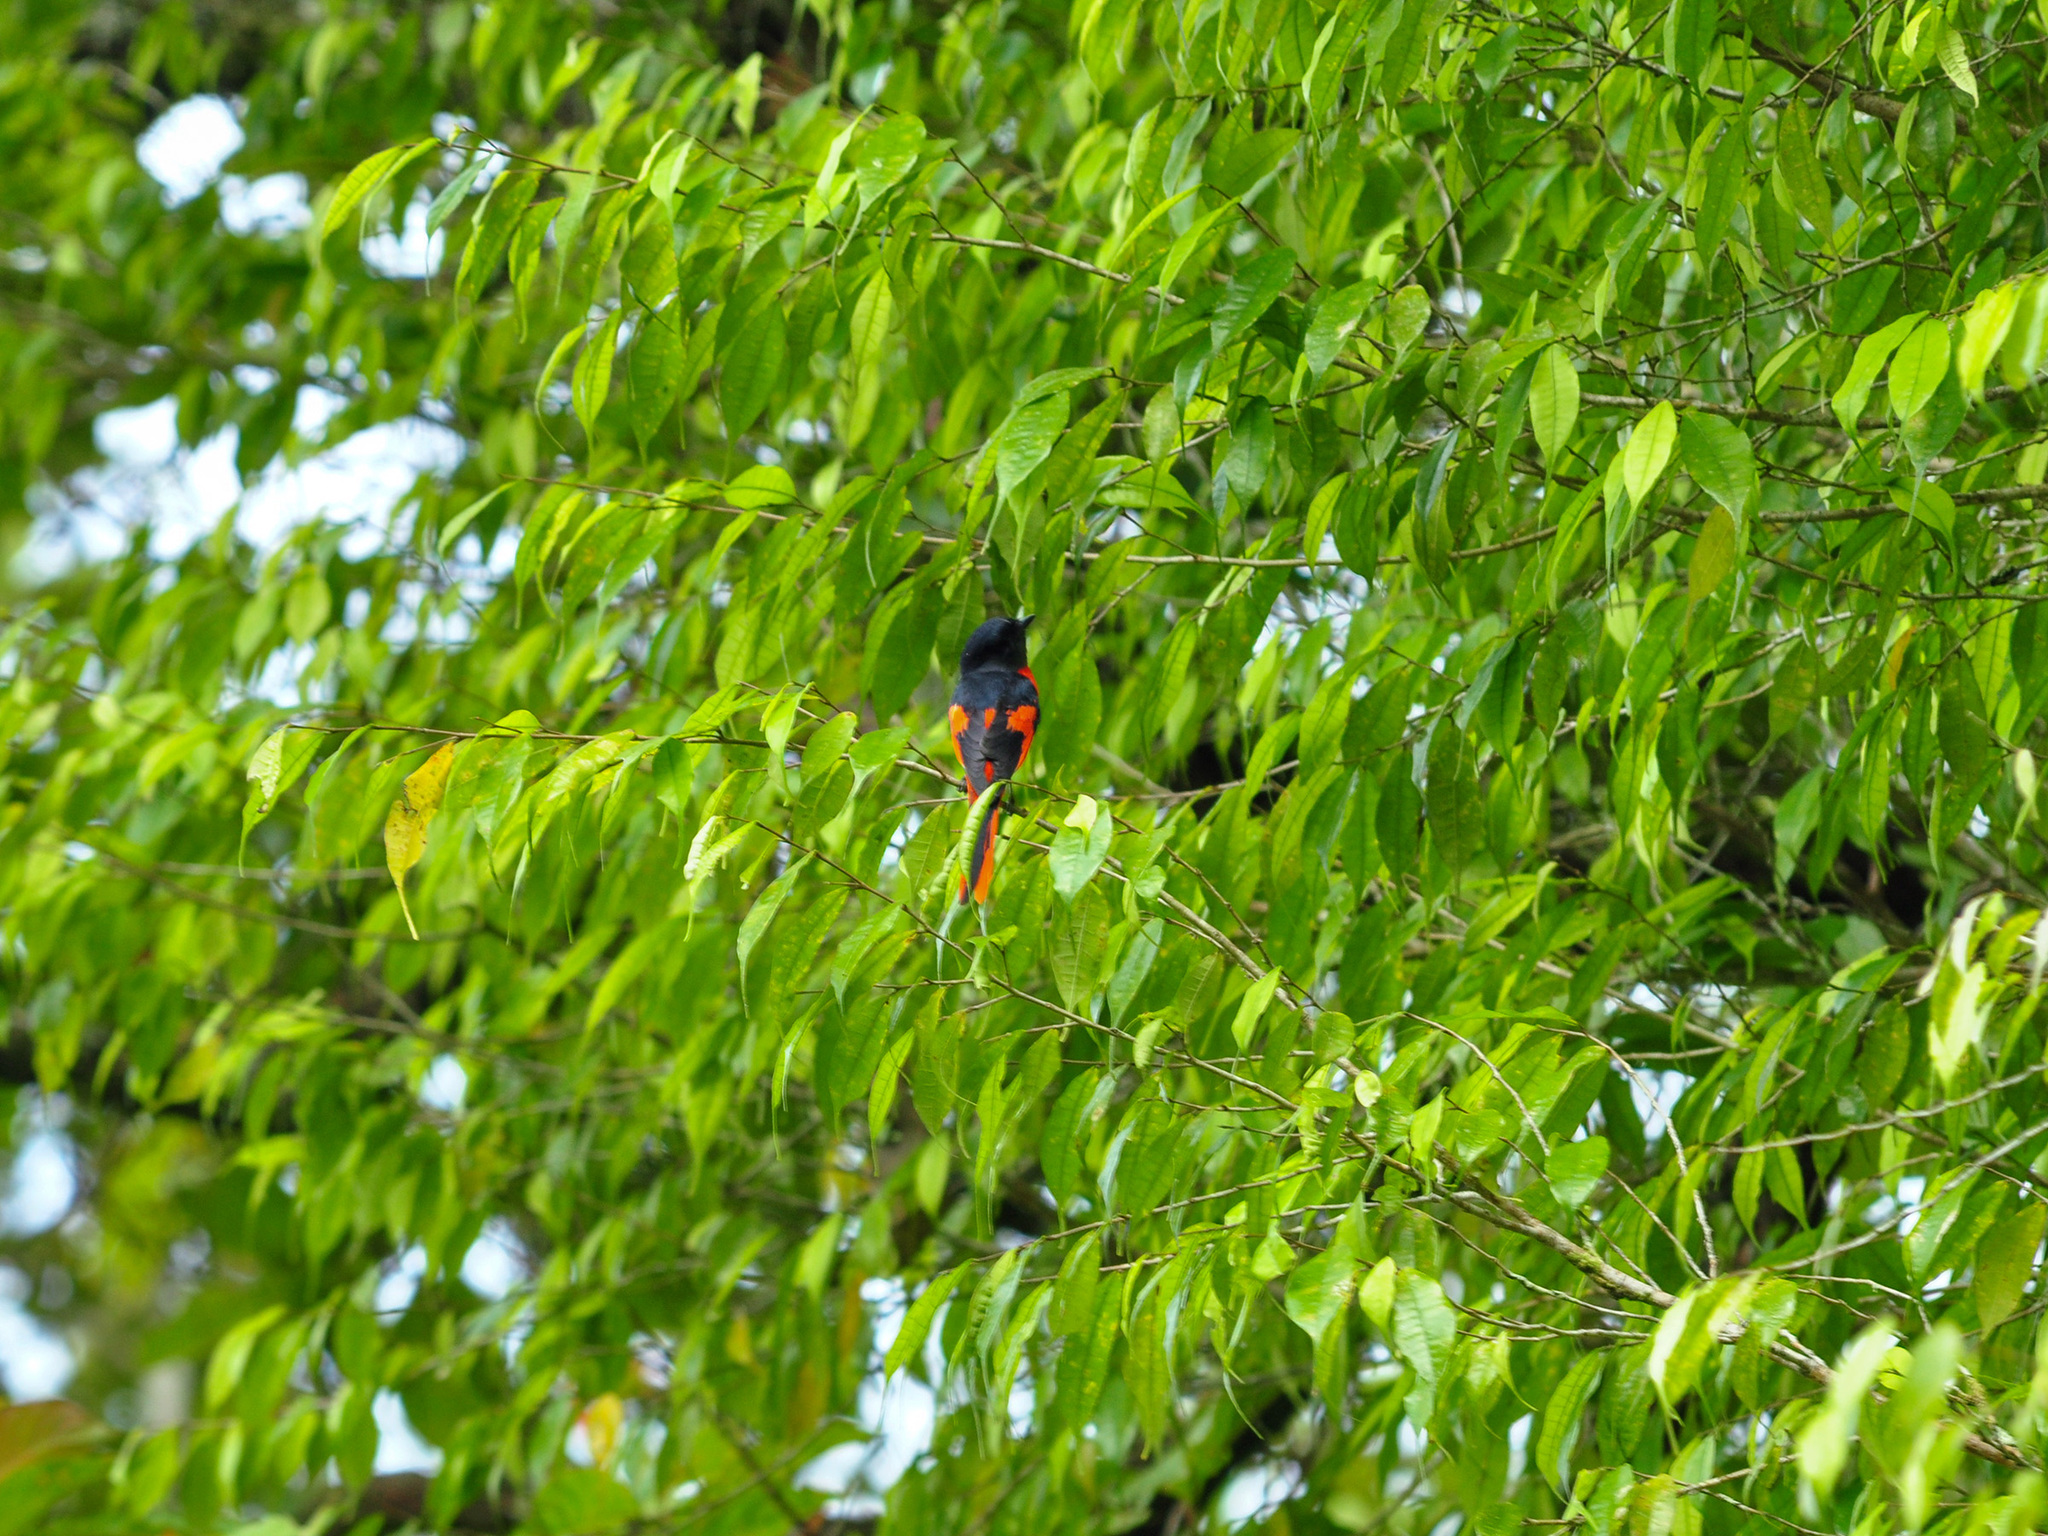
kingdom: Animalia
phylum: Chordata
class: Aves
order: Passeriformes
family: Campephagidae
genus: Pericrocotus
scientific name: Pericrocotus solaris
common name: Grey-chinned minivet
